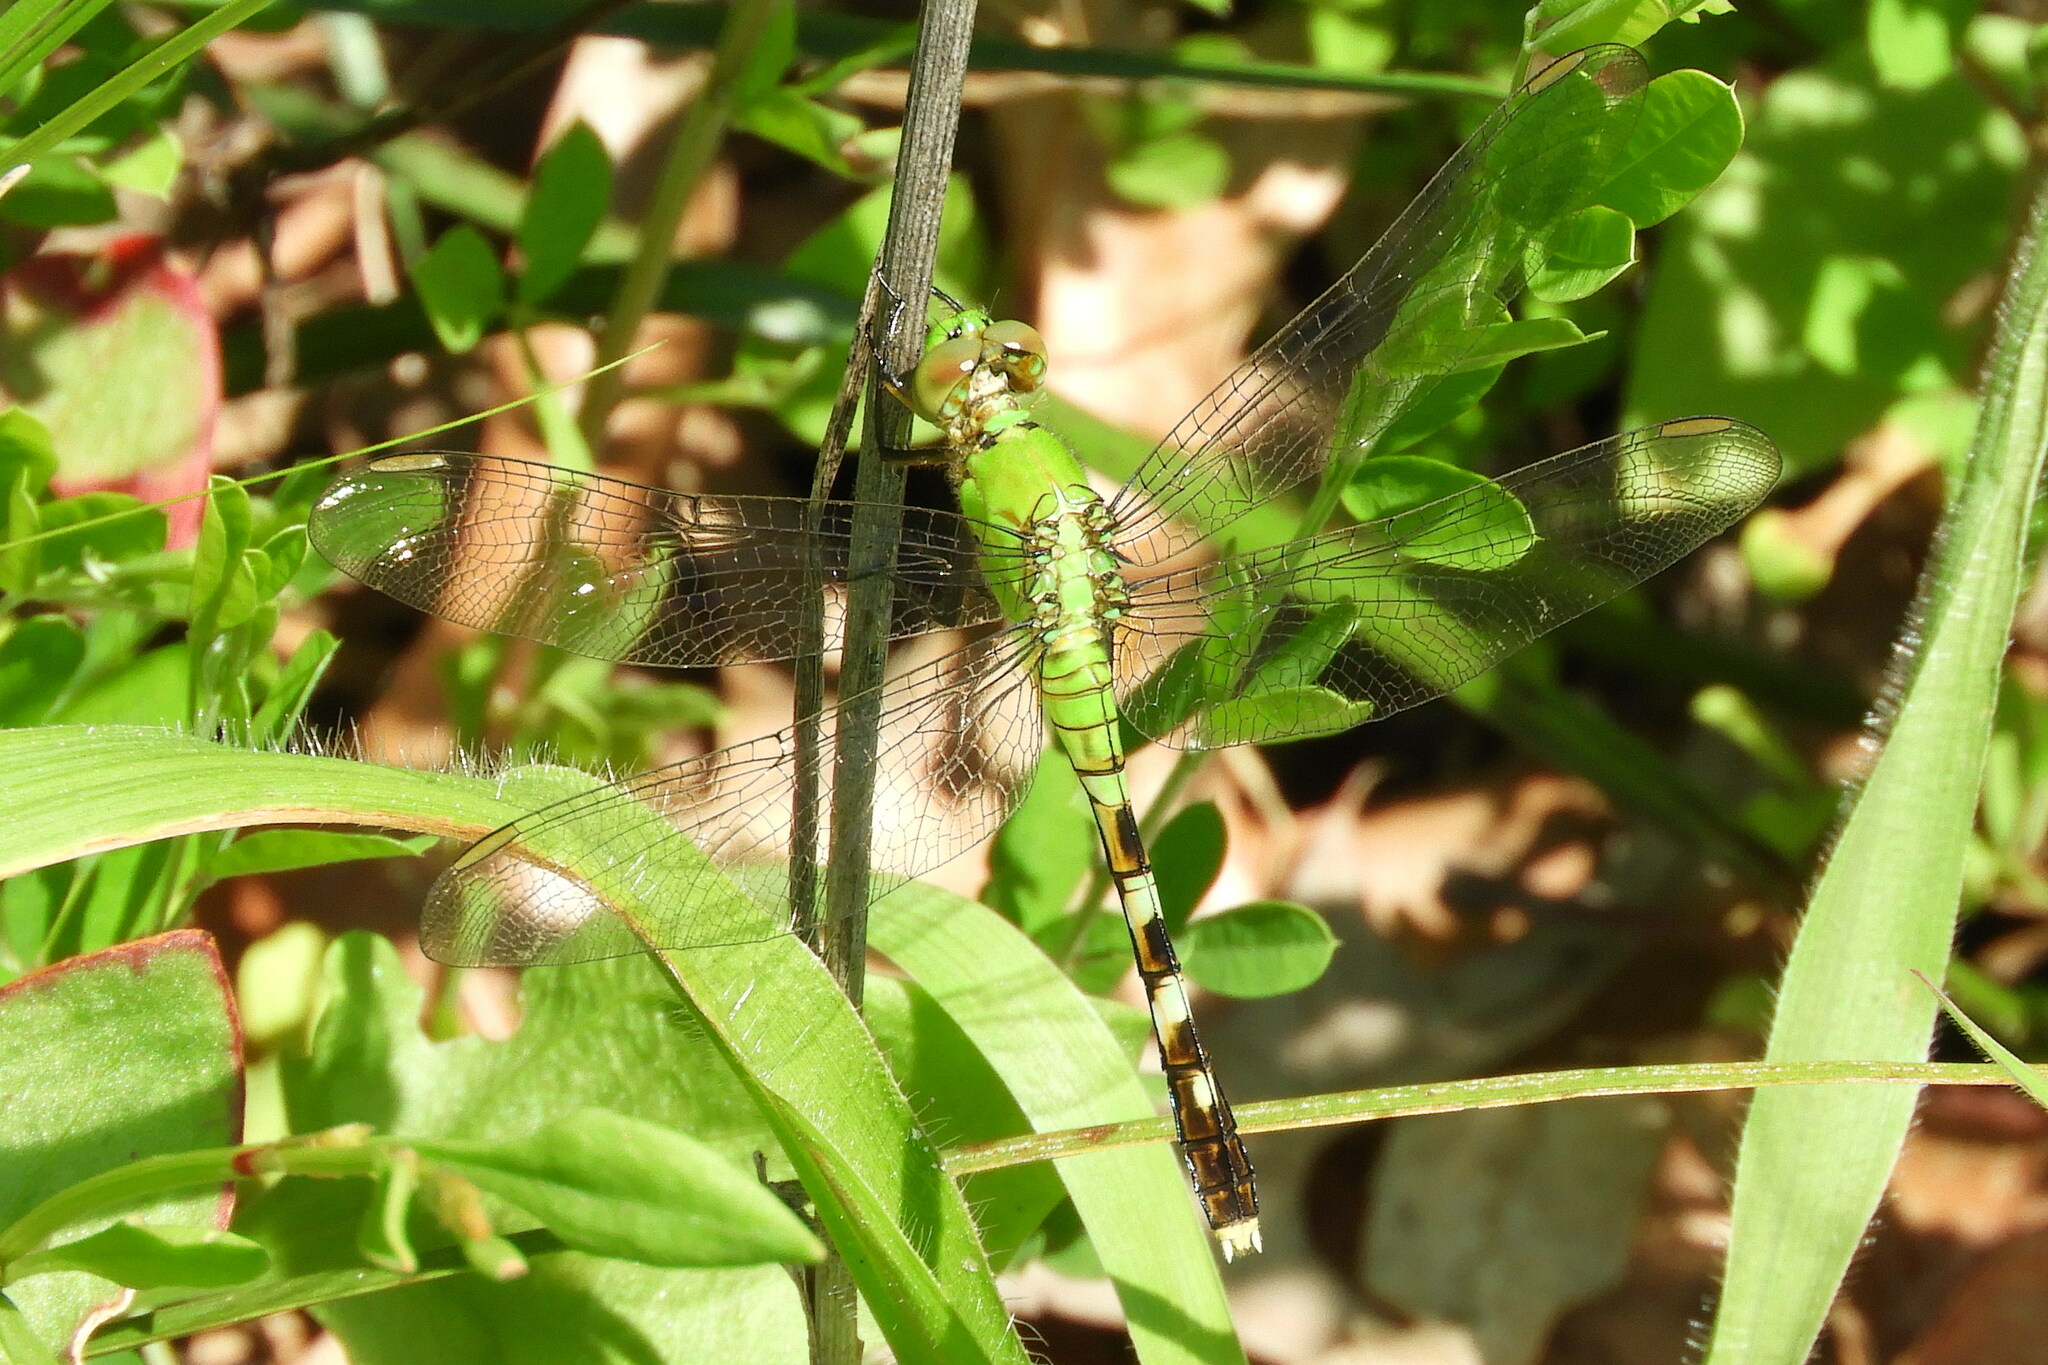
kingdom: Animalia
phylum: Arthropoda
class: Insecta
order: Odonata
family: Libellulidae
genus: Erythemis
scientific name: Erythemis simplicicollis
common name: Eastern pondhawk
